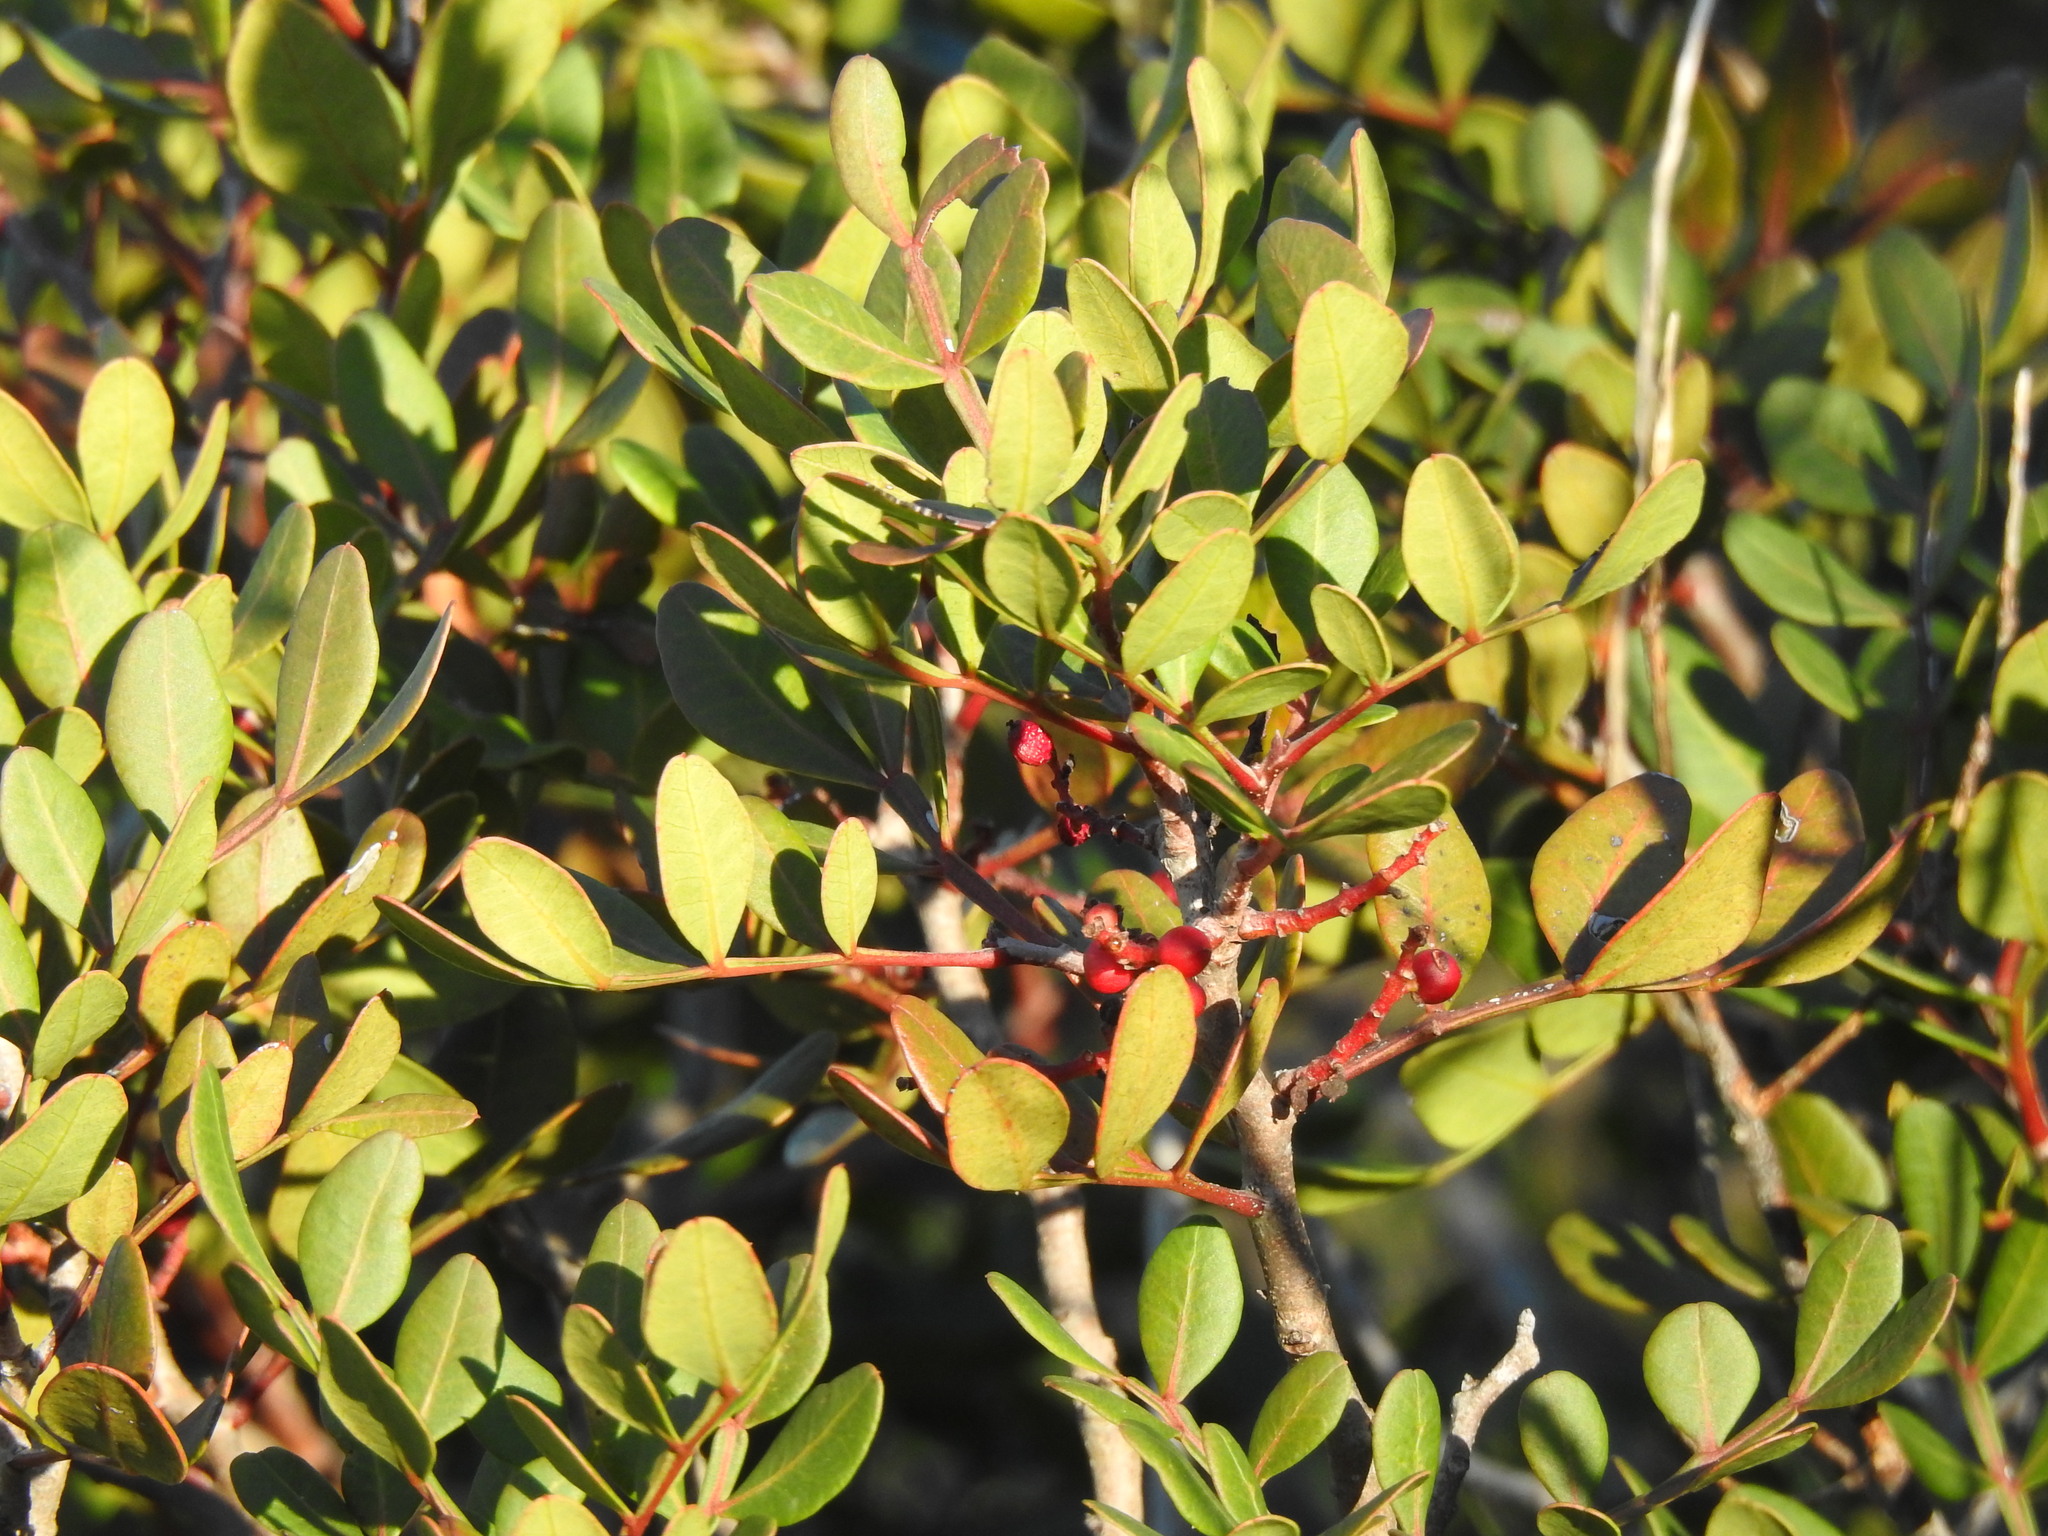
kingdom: Plantae
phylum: Tracheophyta
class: Magnoliopsida
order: Sapindales
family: Anacardiaceae
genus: Pistacia
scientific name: Pistacia lentiscus
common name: Lentisk
